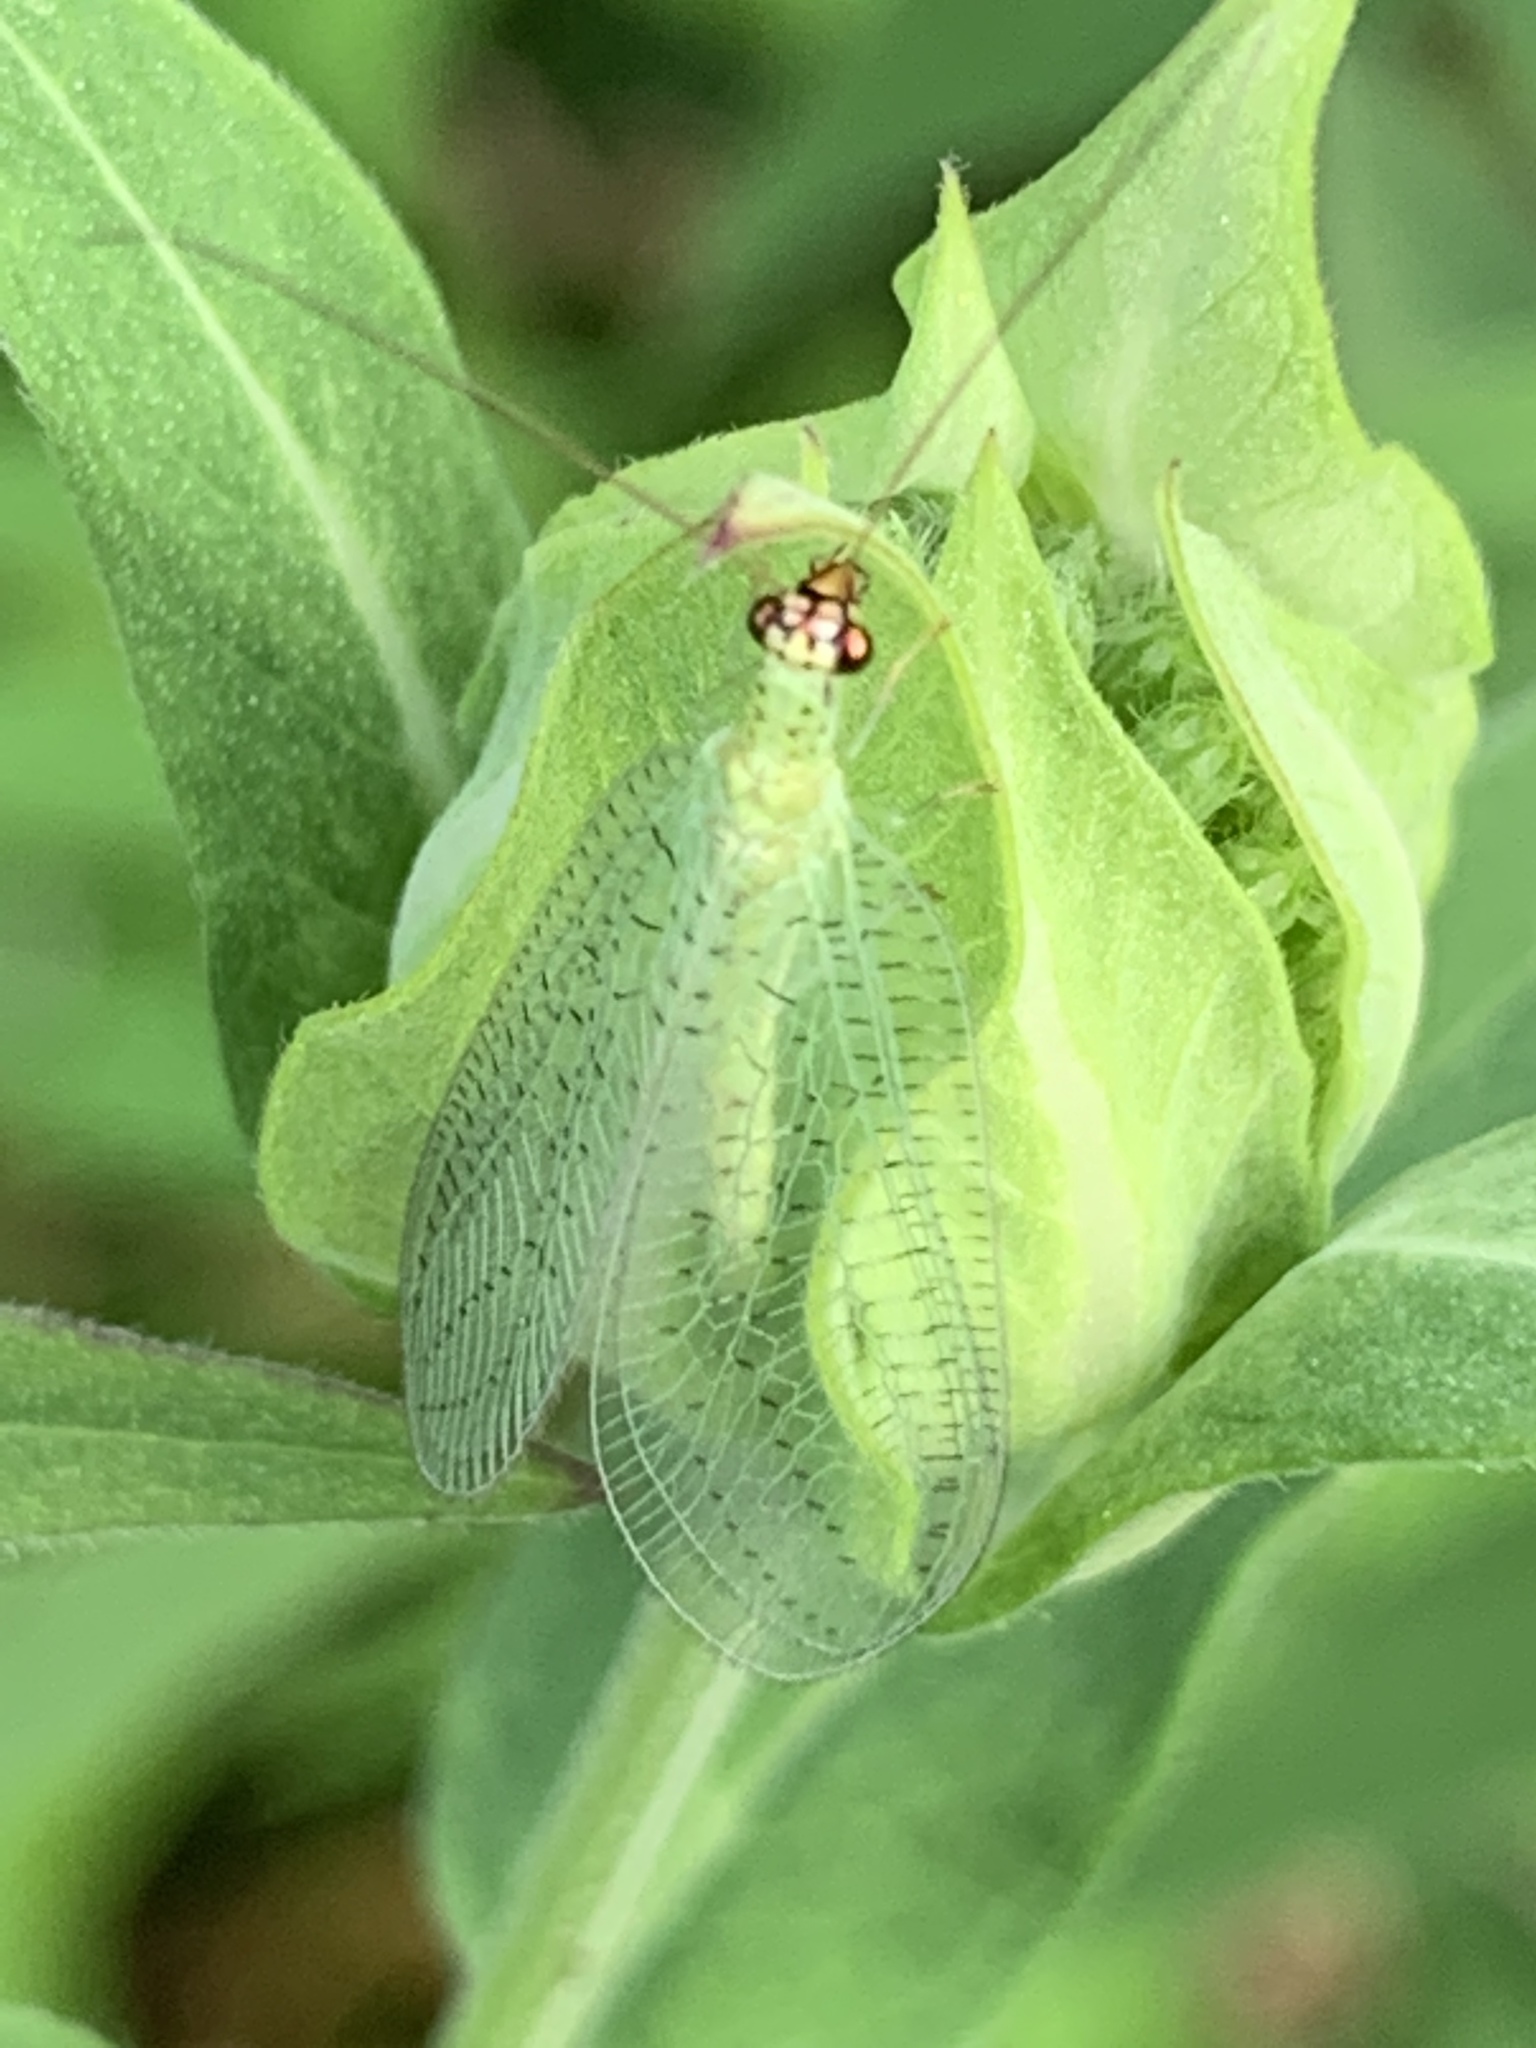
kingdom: Animalia
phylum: Arthropoda
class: Insecta
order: Neuroptera
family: Chrysopidae
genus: Chrysopa
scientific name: Chrysopa oculata
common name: Golden-eyed lacewing
